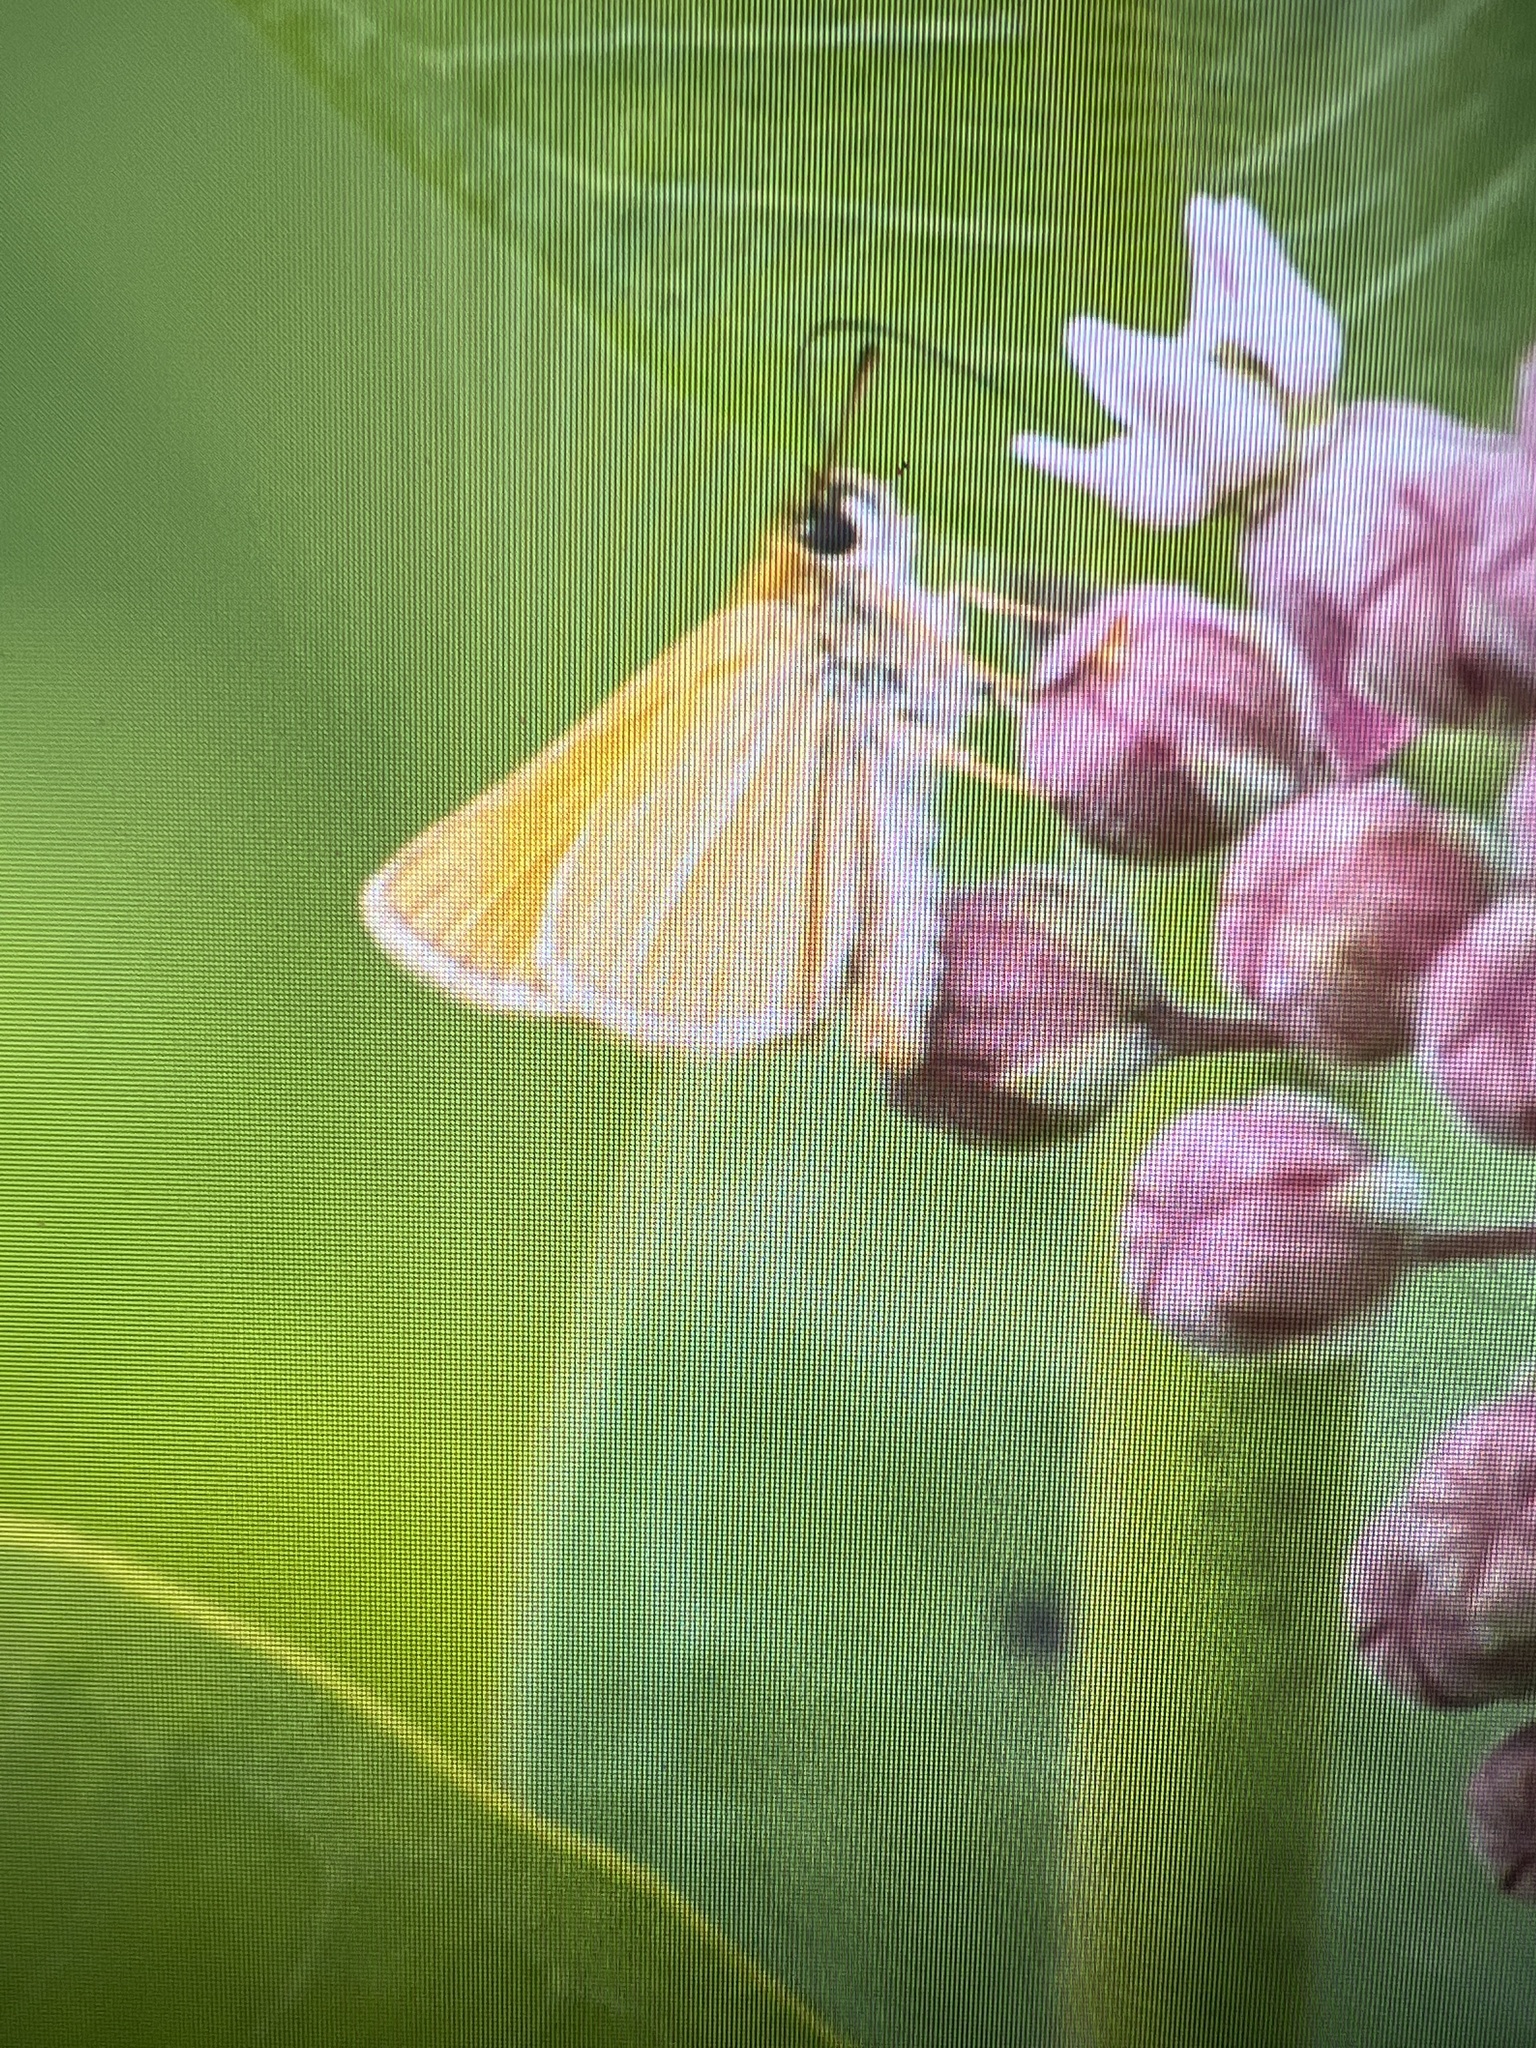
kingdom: Animalia
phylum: Arthropoda
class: Insecta
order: Lepidoptera
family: Hesperiidae
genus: Thymelicus
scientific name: Thymelicus lineola
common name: Essex skipper
